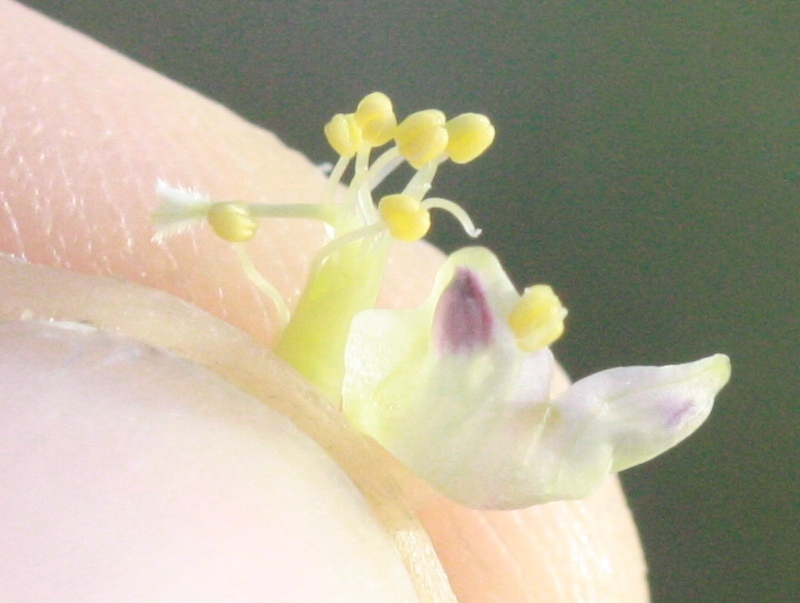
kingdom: Plantae
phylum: Tracheophyta
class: Magnoliopsida
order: Fabales
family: Fabaceae
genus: Vicia
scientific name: Vicia americana
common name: American vetch
